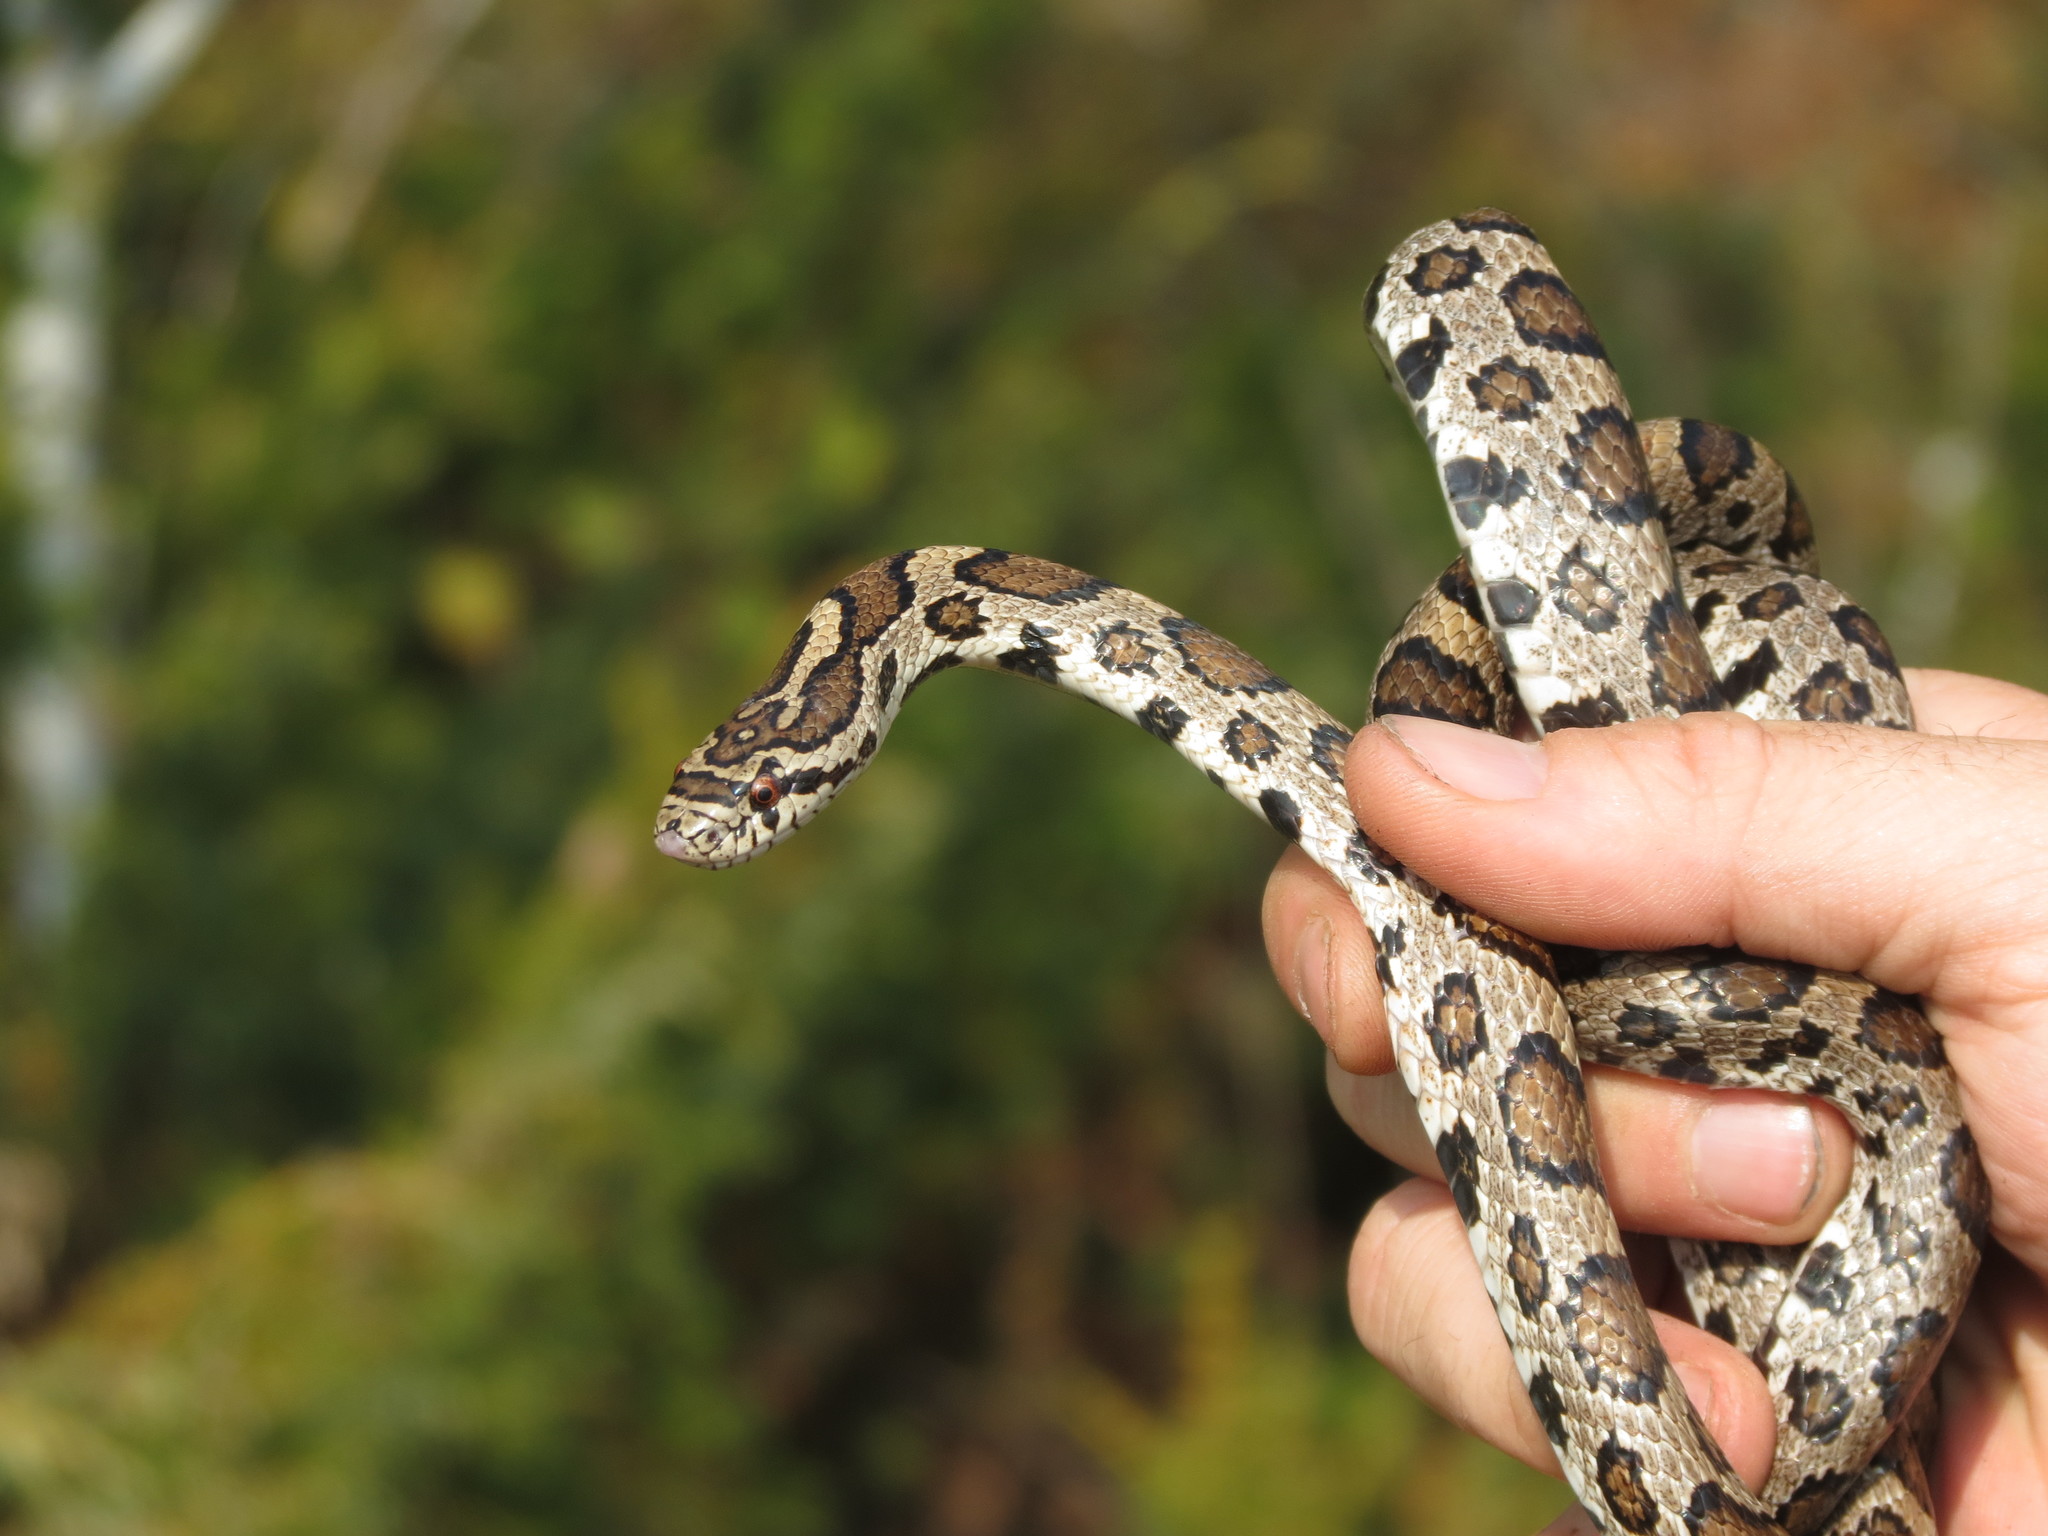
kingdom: Animalia
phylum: Chordata
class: Squamata
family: Colubridae
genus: Lampropeltis
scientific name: Lampropeltis triangulum
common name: Eastern milksnake
